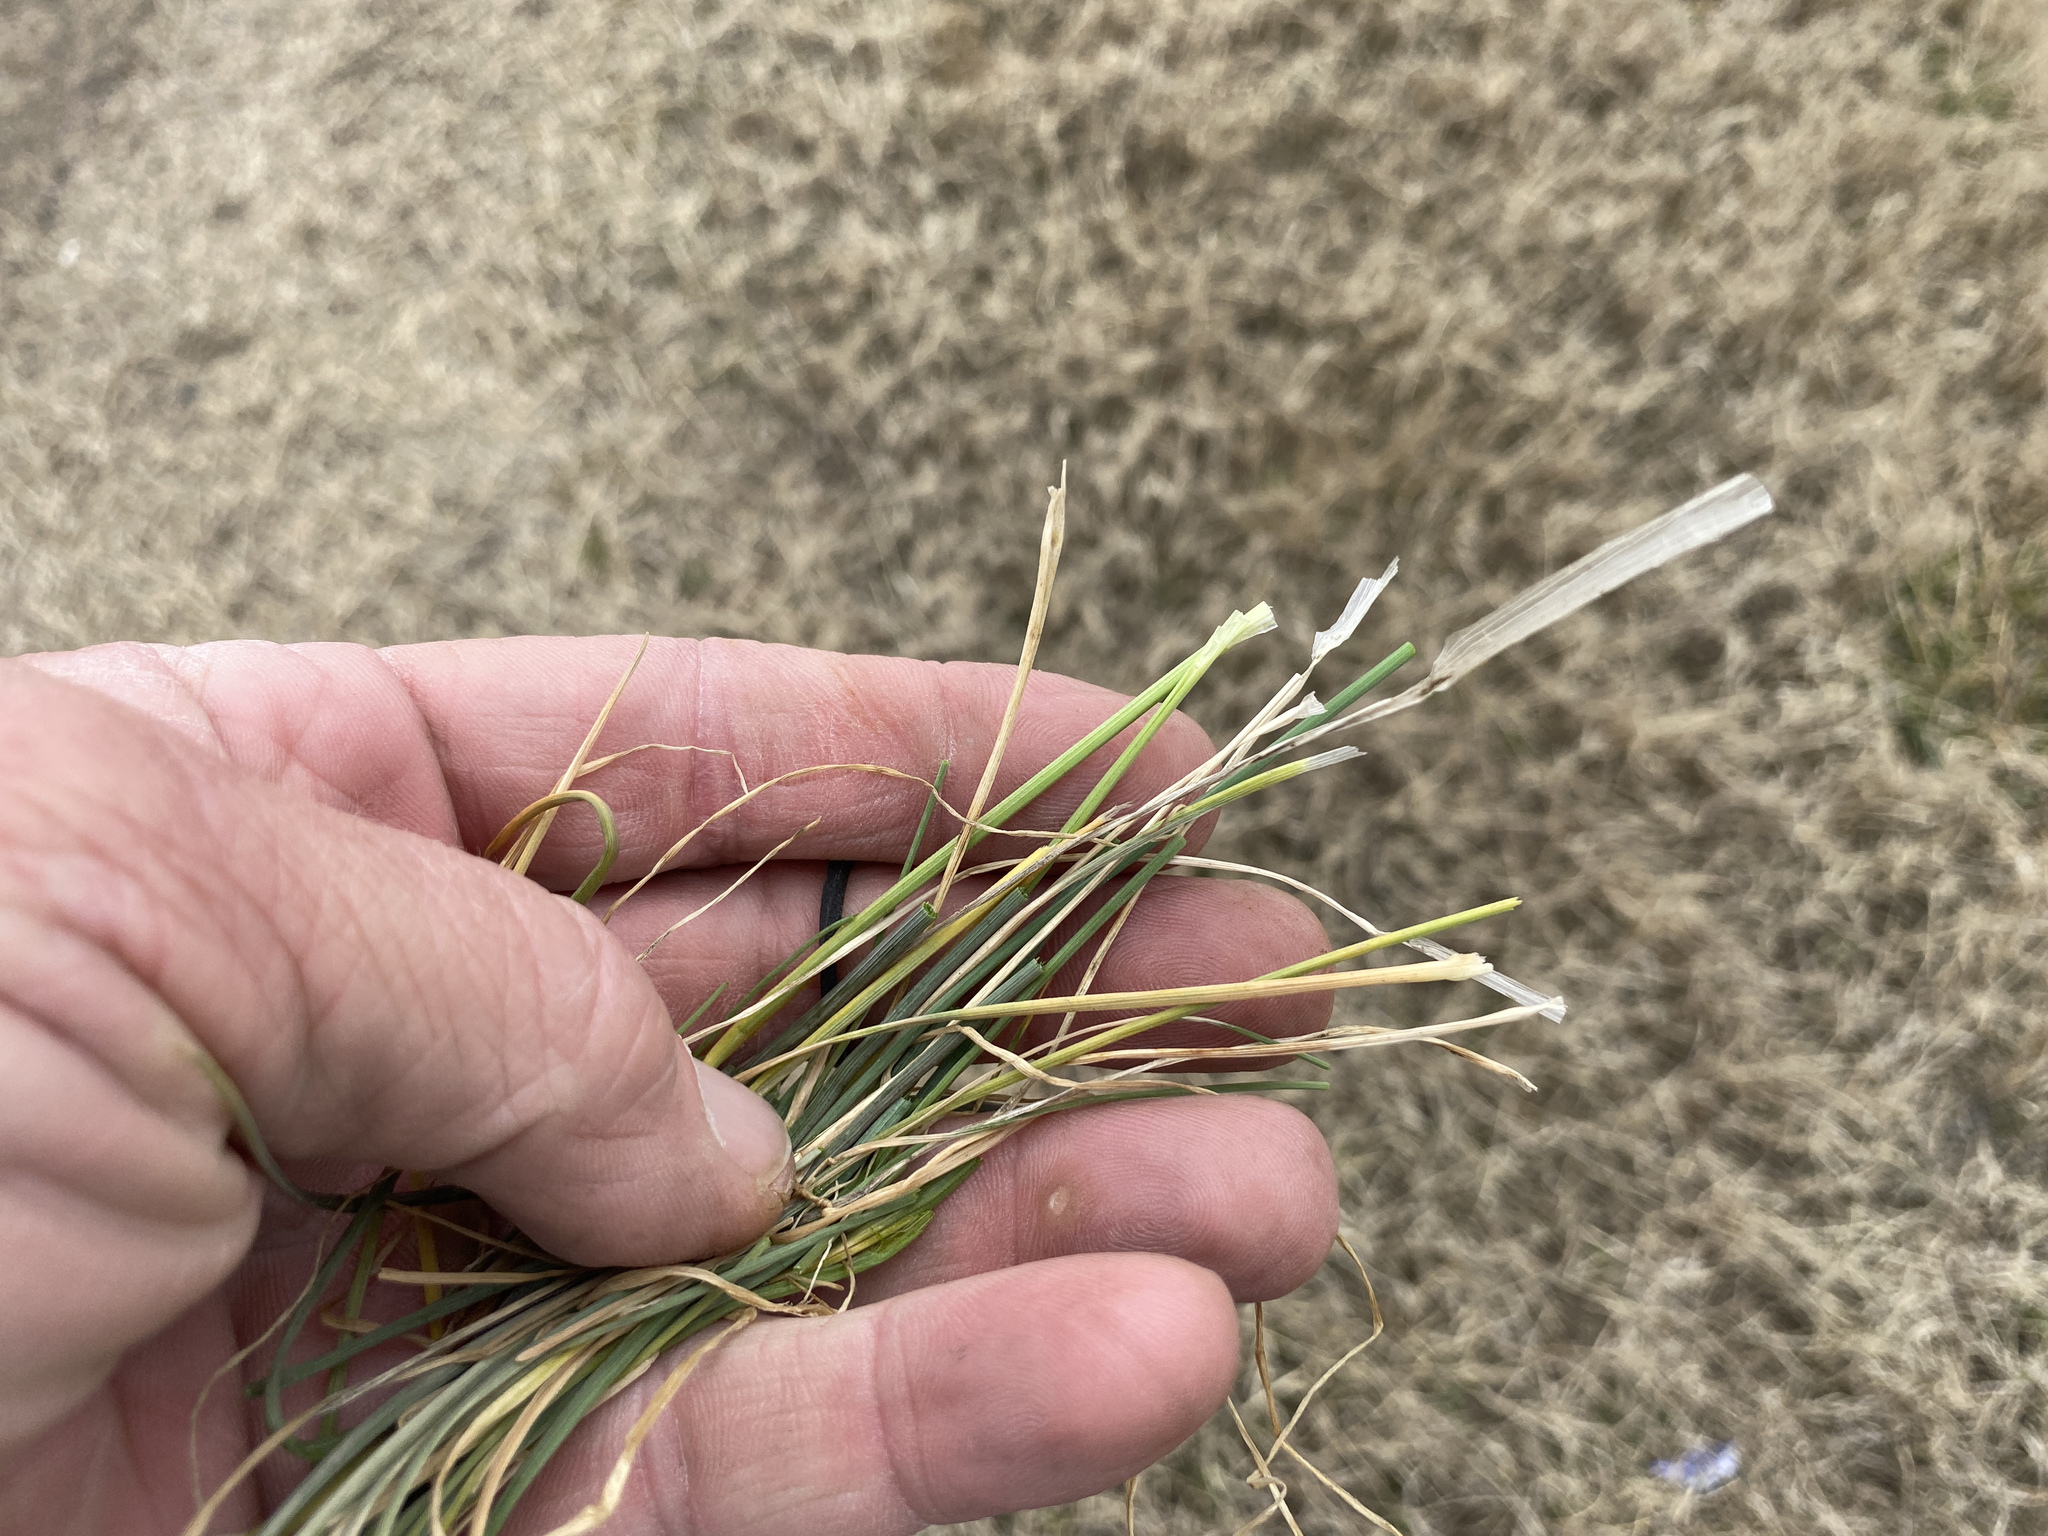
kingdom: Plantae
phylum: Tracheophyta
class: Liliopsida
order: Asparagales
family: Amaryllidaceae
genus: Allium
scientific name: Allium vineale
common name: Crow garlic
